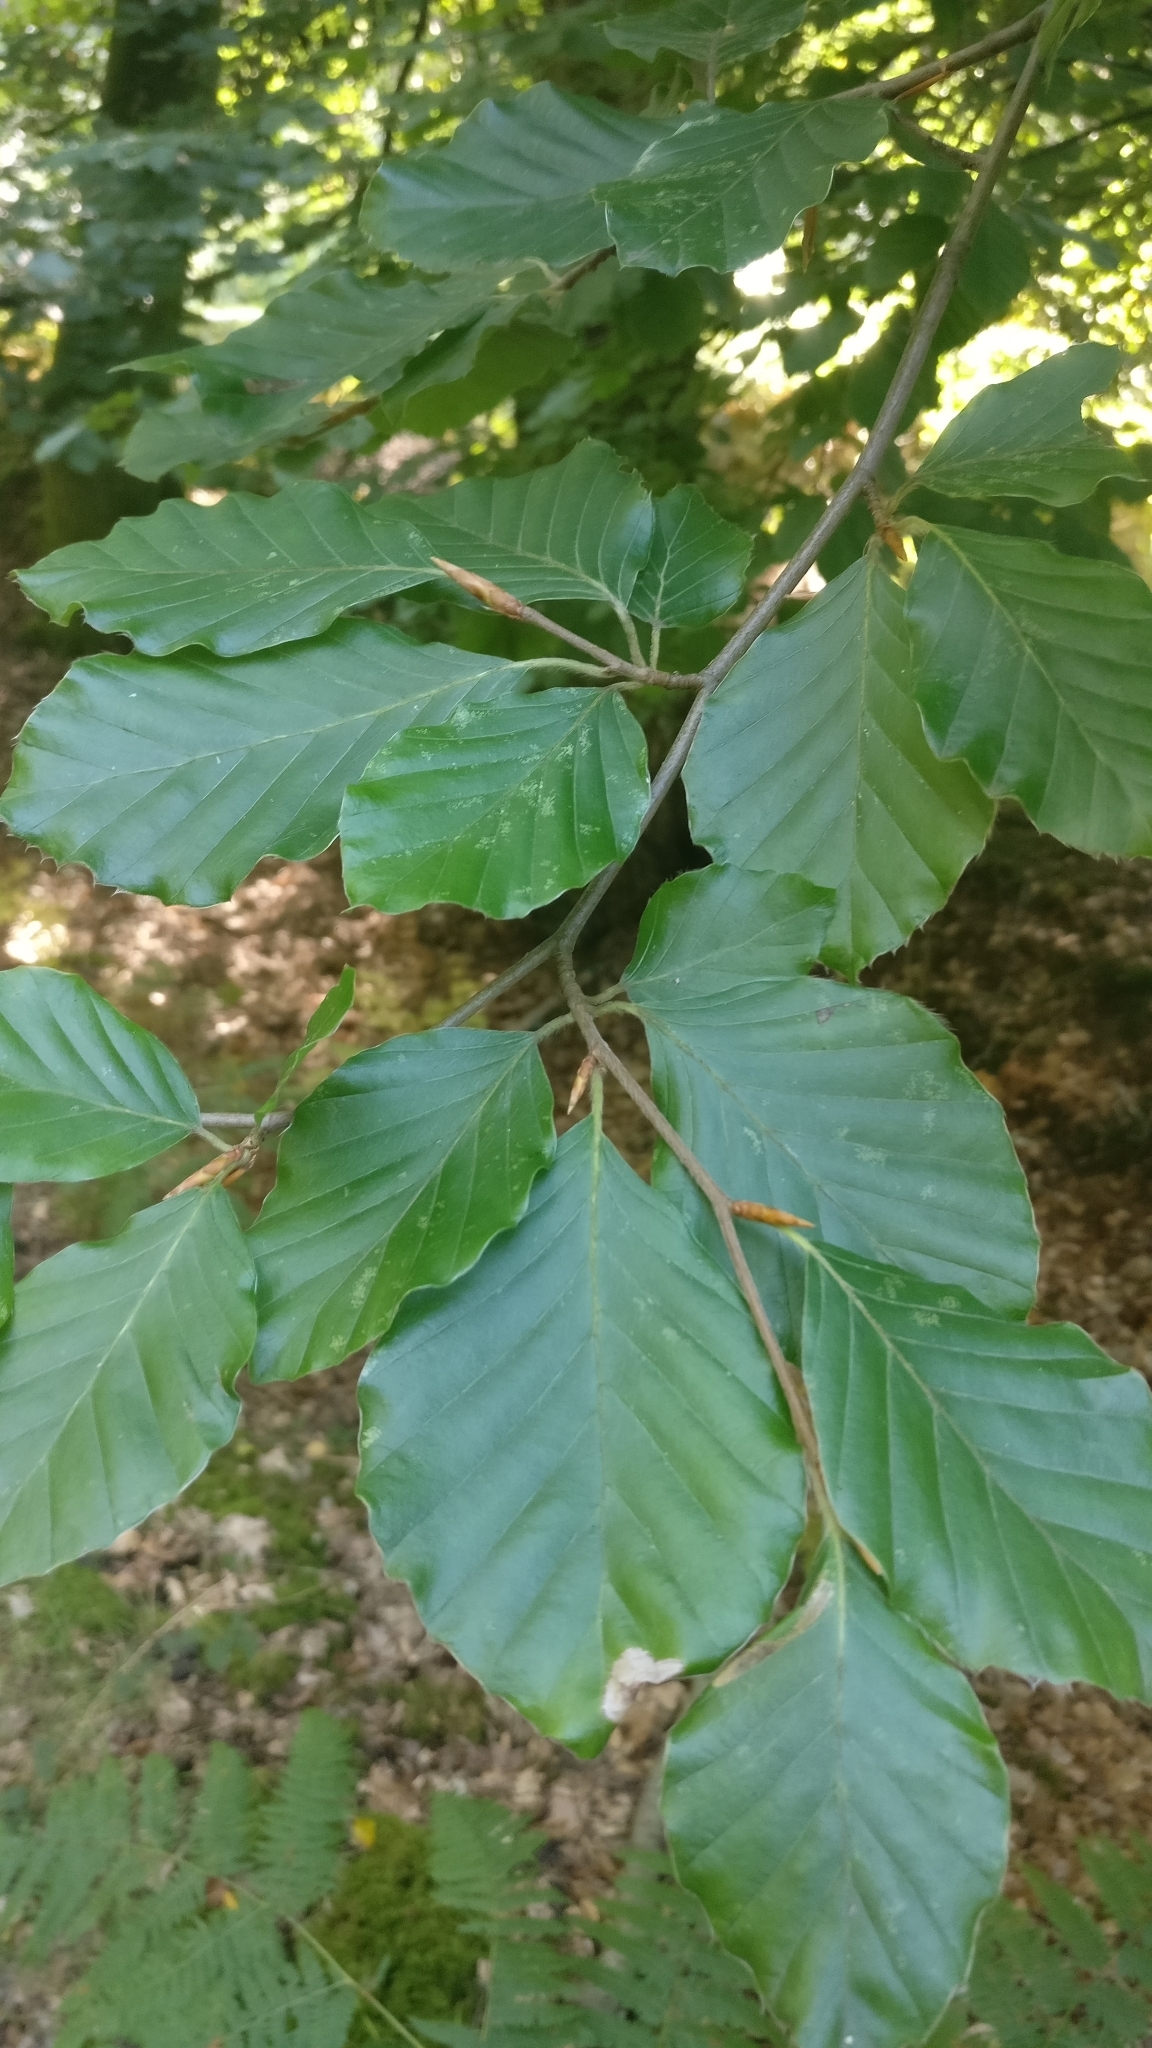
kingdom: Plantae
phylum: Tracheophyta
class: Magnoliopsida
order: Fagales
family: Fagaceae
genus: Fagus
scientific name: Fagus sylvatica
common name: Beech
